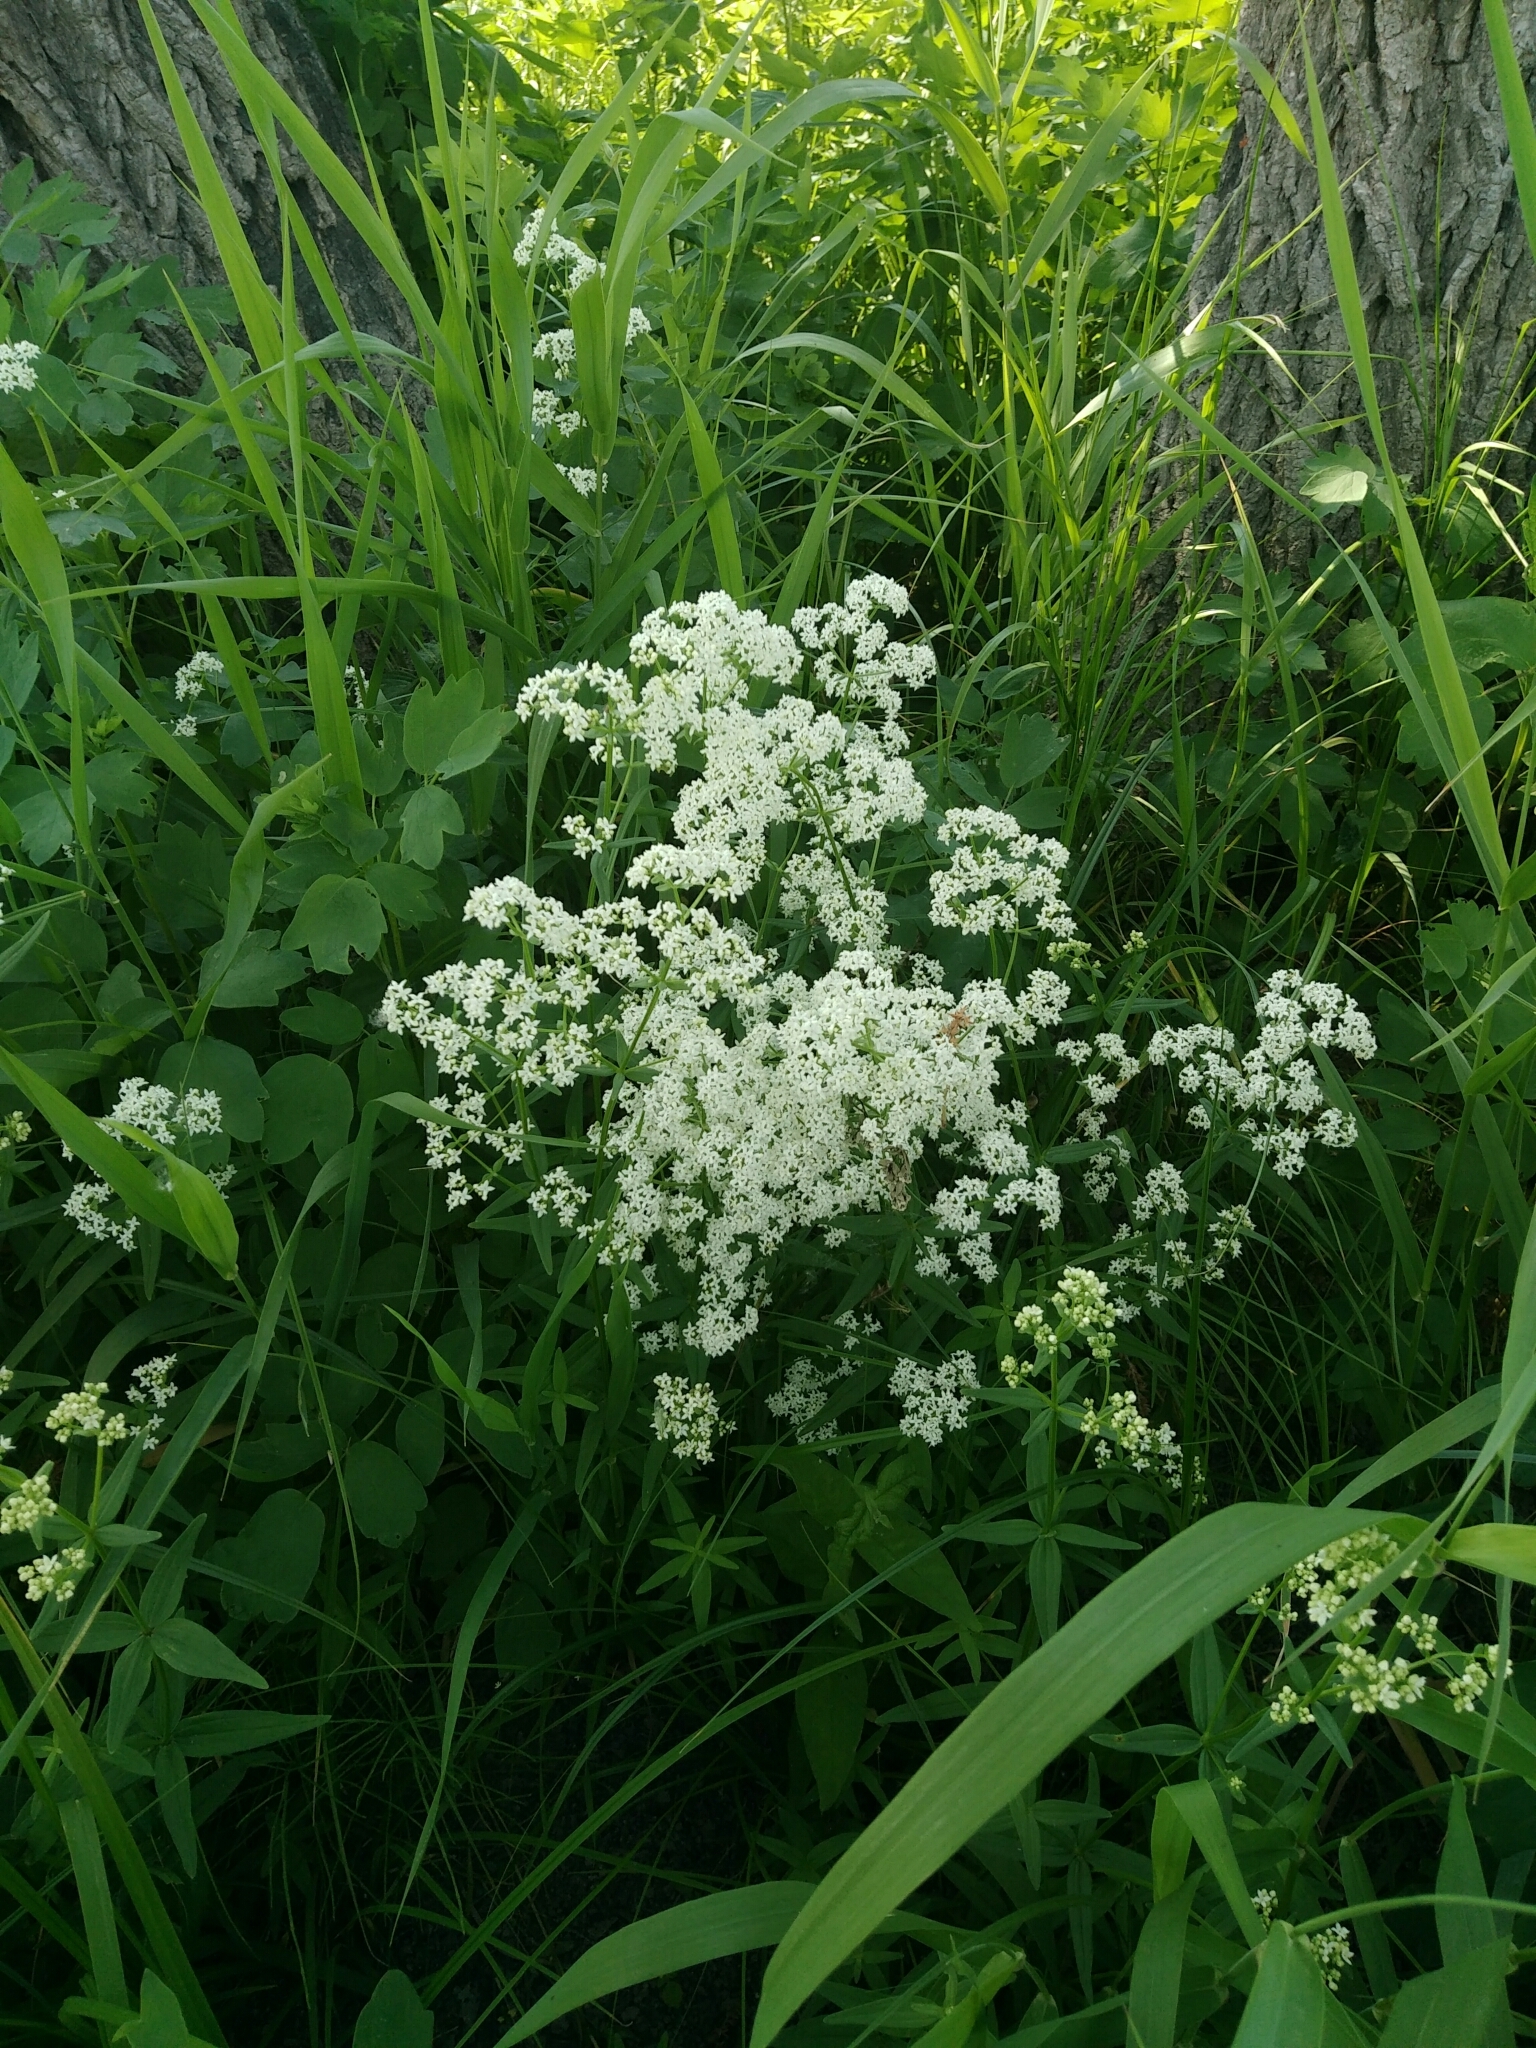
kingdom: Plantae
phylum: Tracheophyta
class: Magnoliopsida
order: Gentianales
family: Rubiaceae
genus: Galium
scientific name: Galium mollugo
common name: Hedge bedstraw
